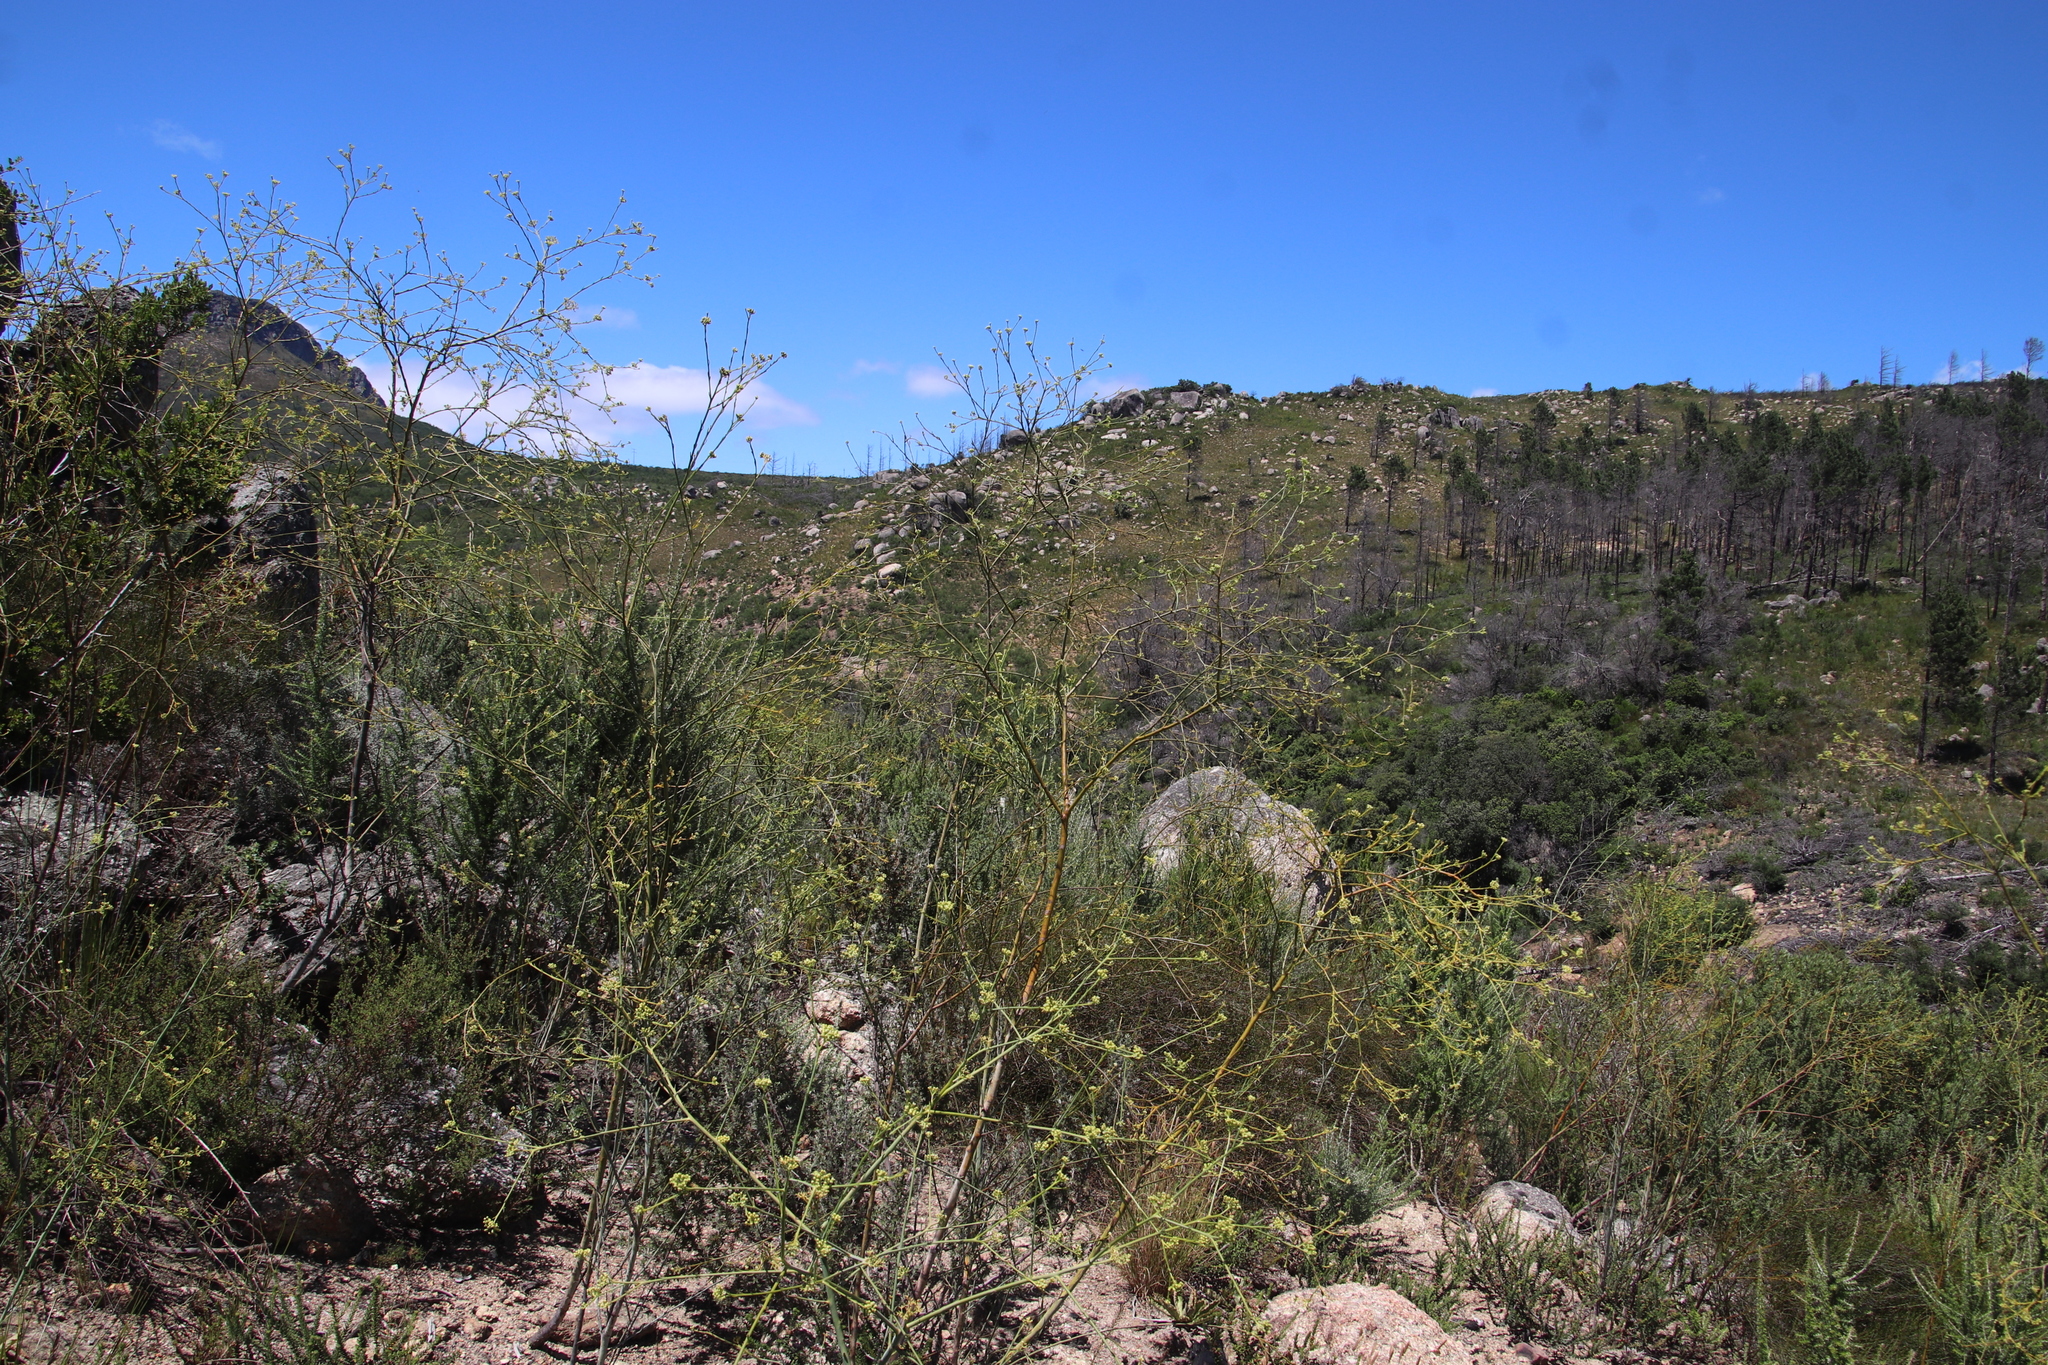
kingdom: Plantae
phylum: Tracheophyta
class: Magnoliopsida
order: Santalales
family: Thesiaceae
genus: Thesium
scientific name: Thesium strictum
